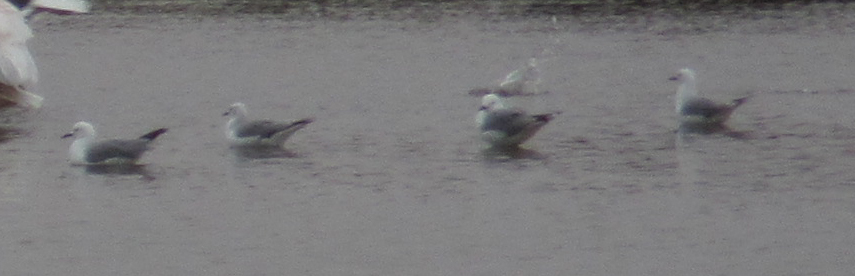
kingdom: Animalia
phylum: Chordata
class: Aves
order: Charadriiformes
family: Laridae
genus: Chroicocephalus
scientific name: Chroicocephalus hartlaubii
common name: Hartlaub's gull
